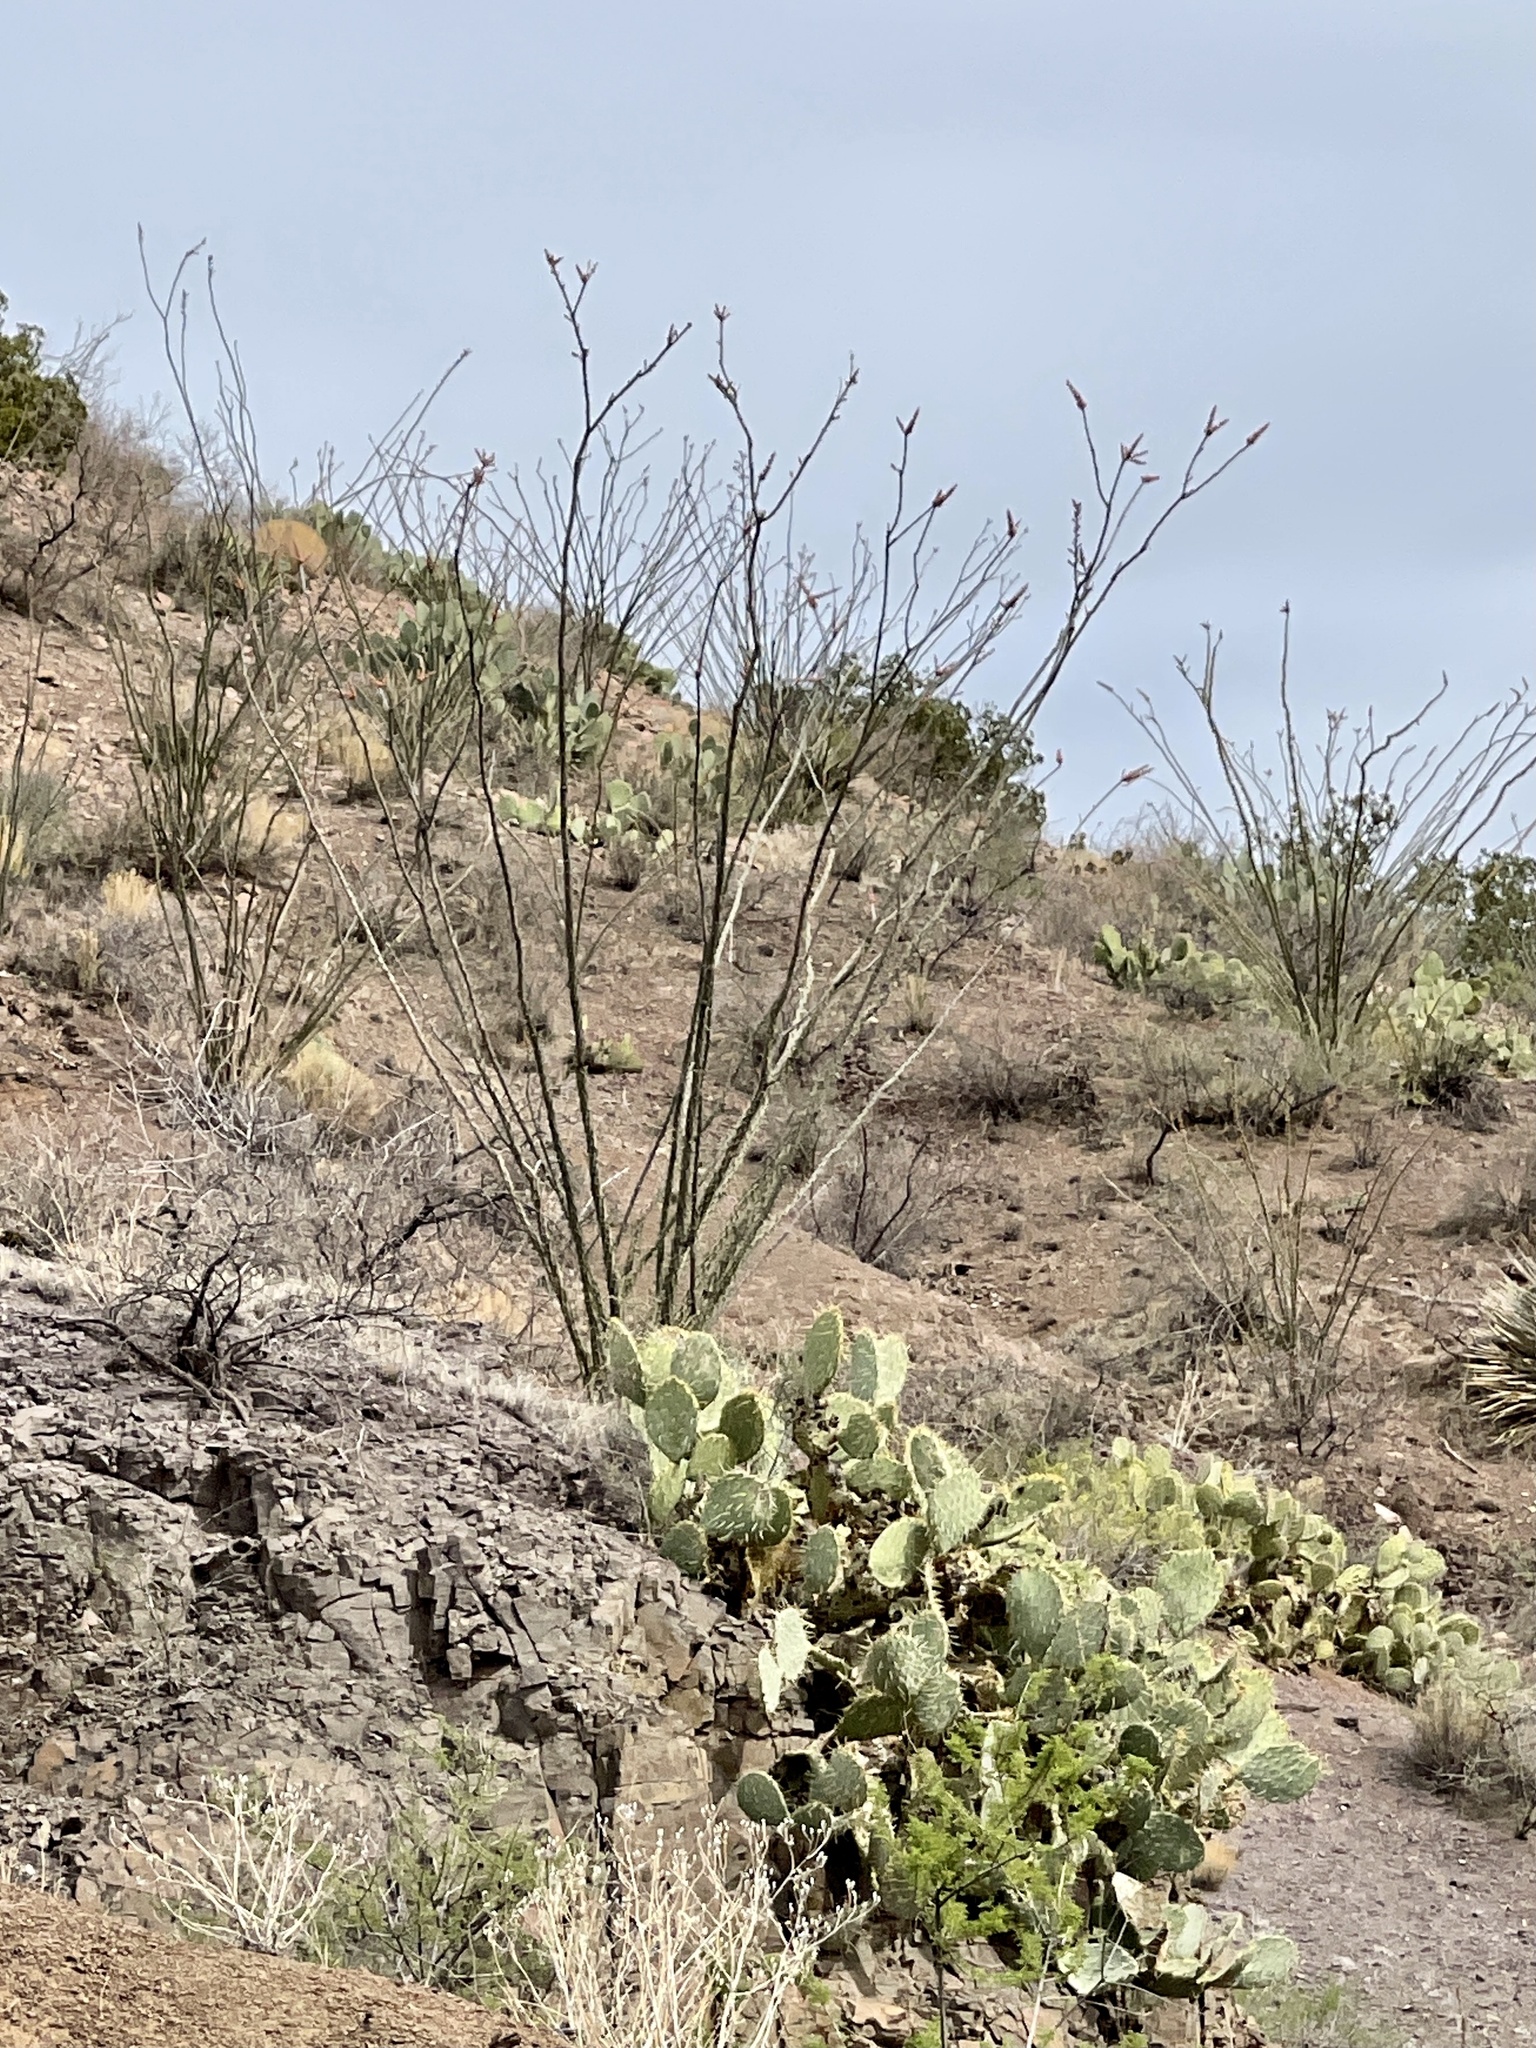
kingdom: Plantae
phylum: Tracheophyta
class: Magnoliopsida
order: Ericales
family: Fouquieriaceae
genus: Fouquieria
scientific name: Fouquieria splendens
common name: Vine-cactus
